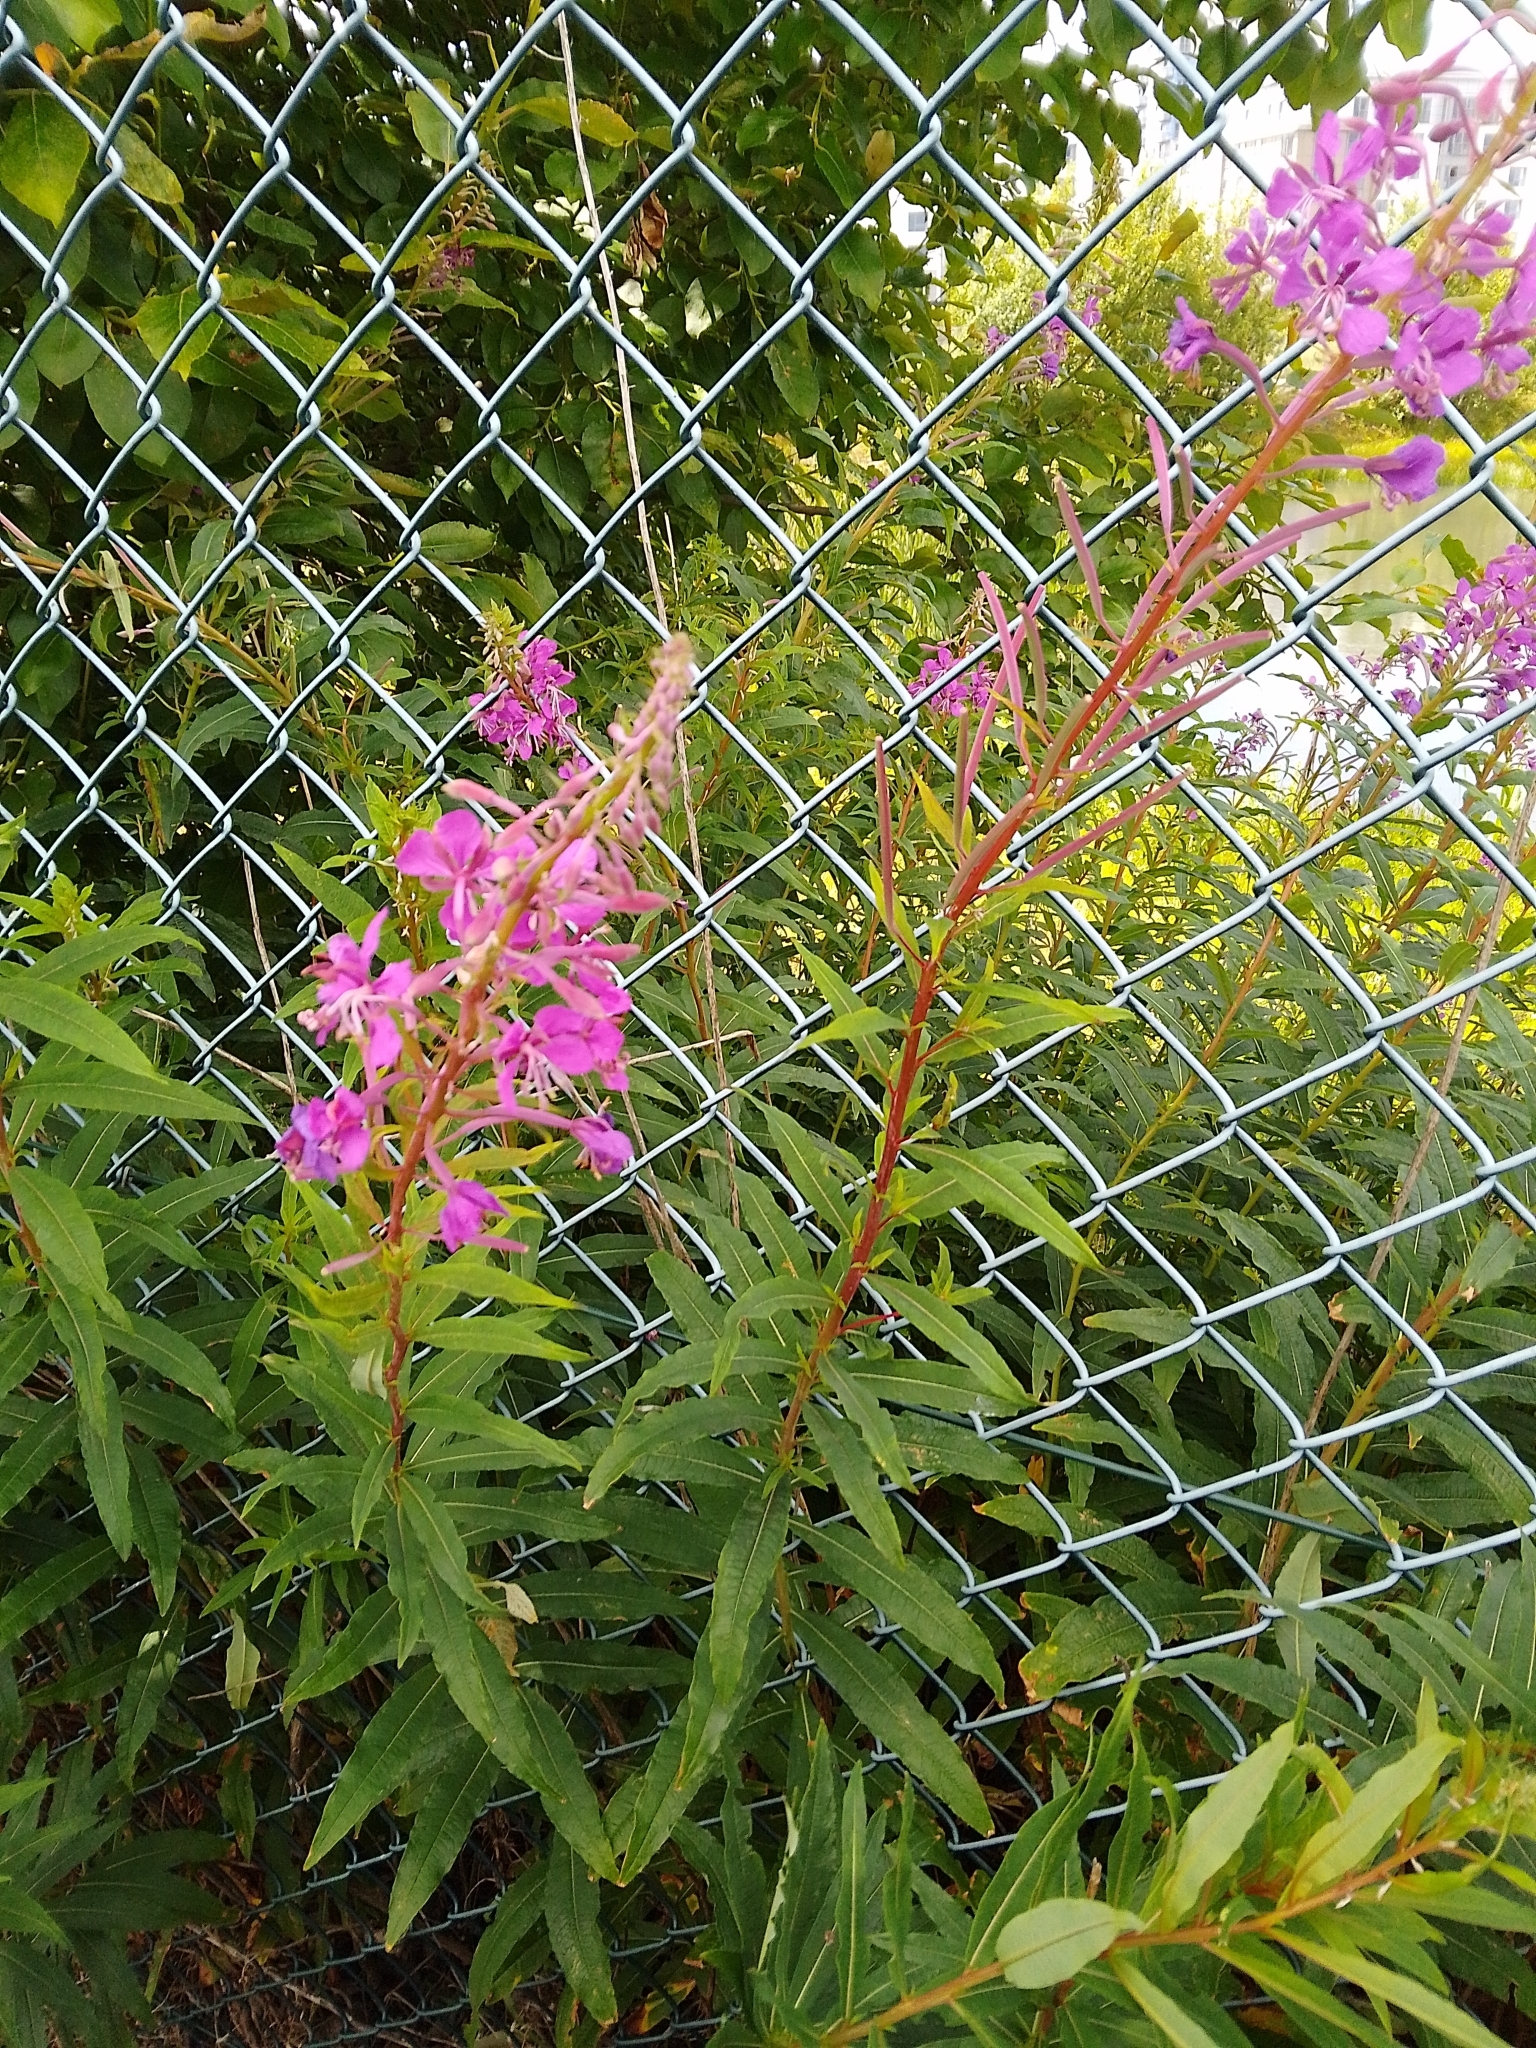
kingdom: Plantae
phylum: Tracheophyta
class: Magnoliopsida
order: Myrtales
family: Onagraceae
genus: Chamaenerion
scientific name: Chamaenerion angustifolium
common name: Fireweed
